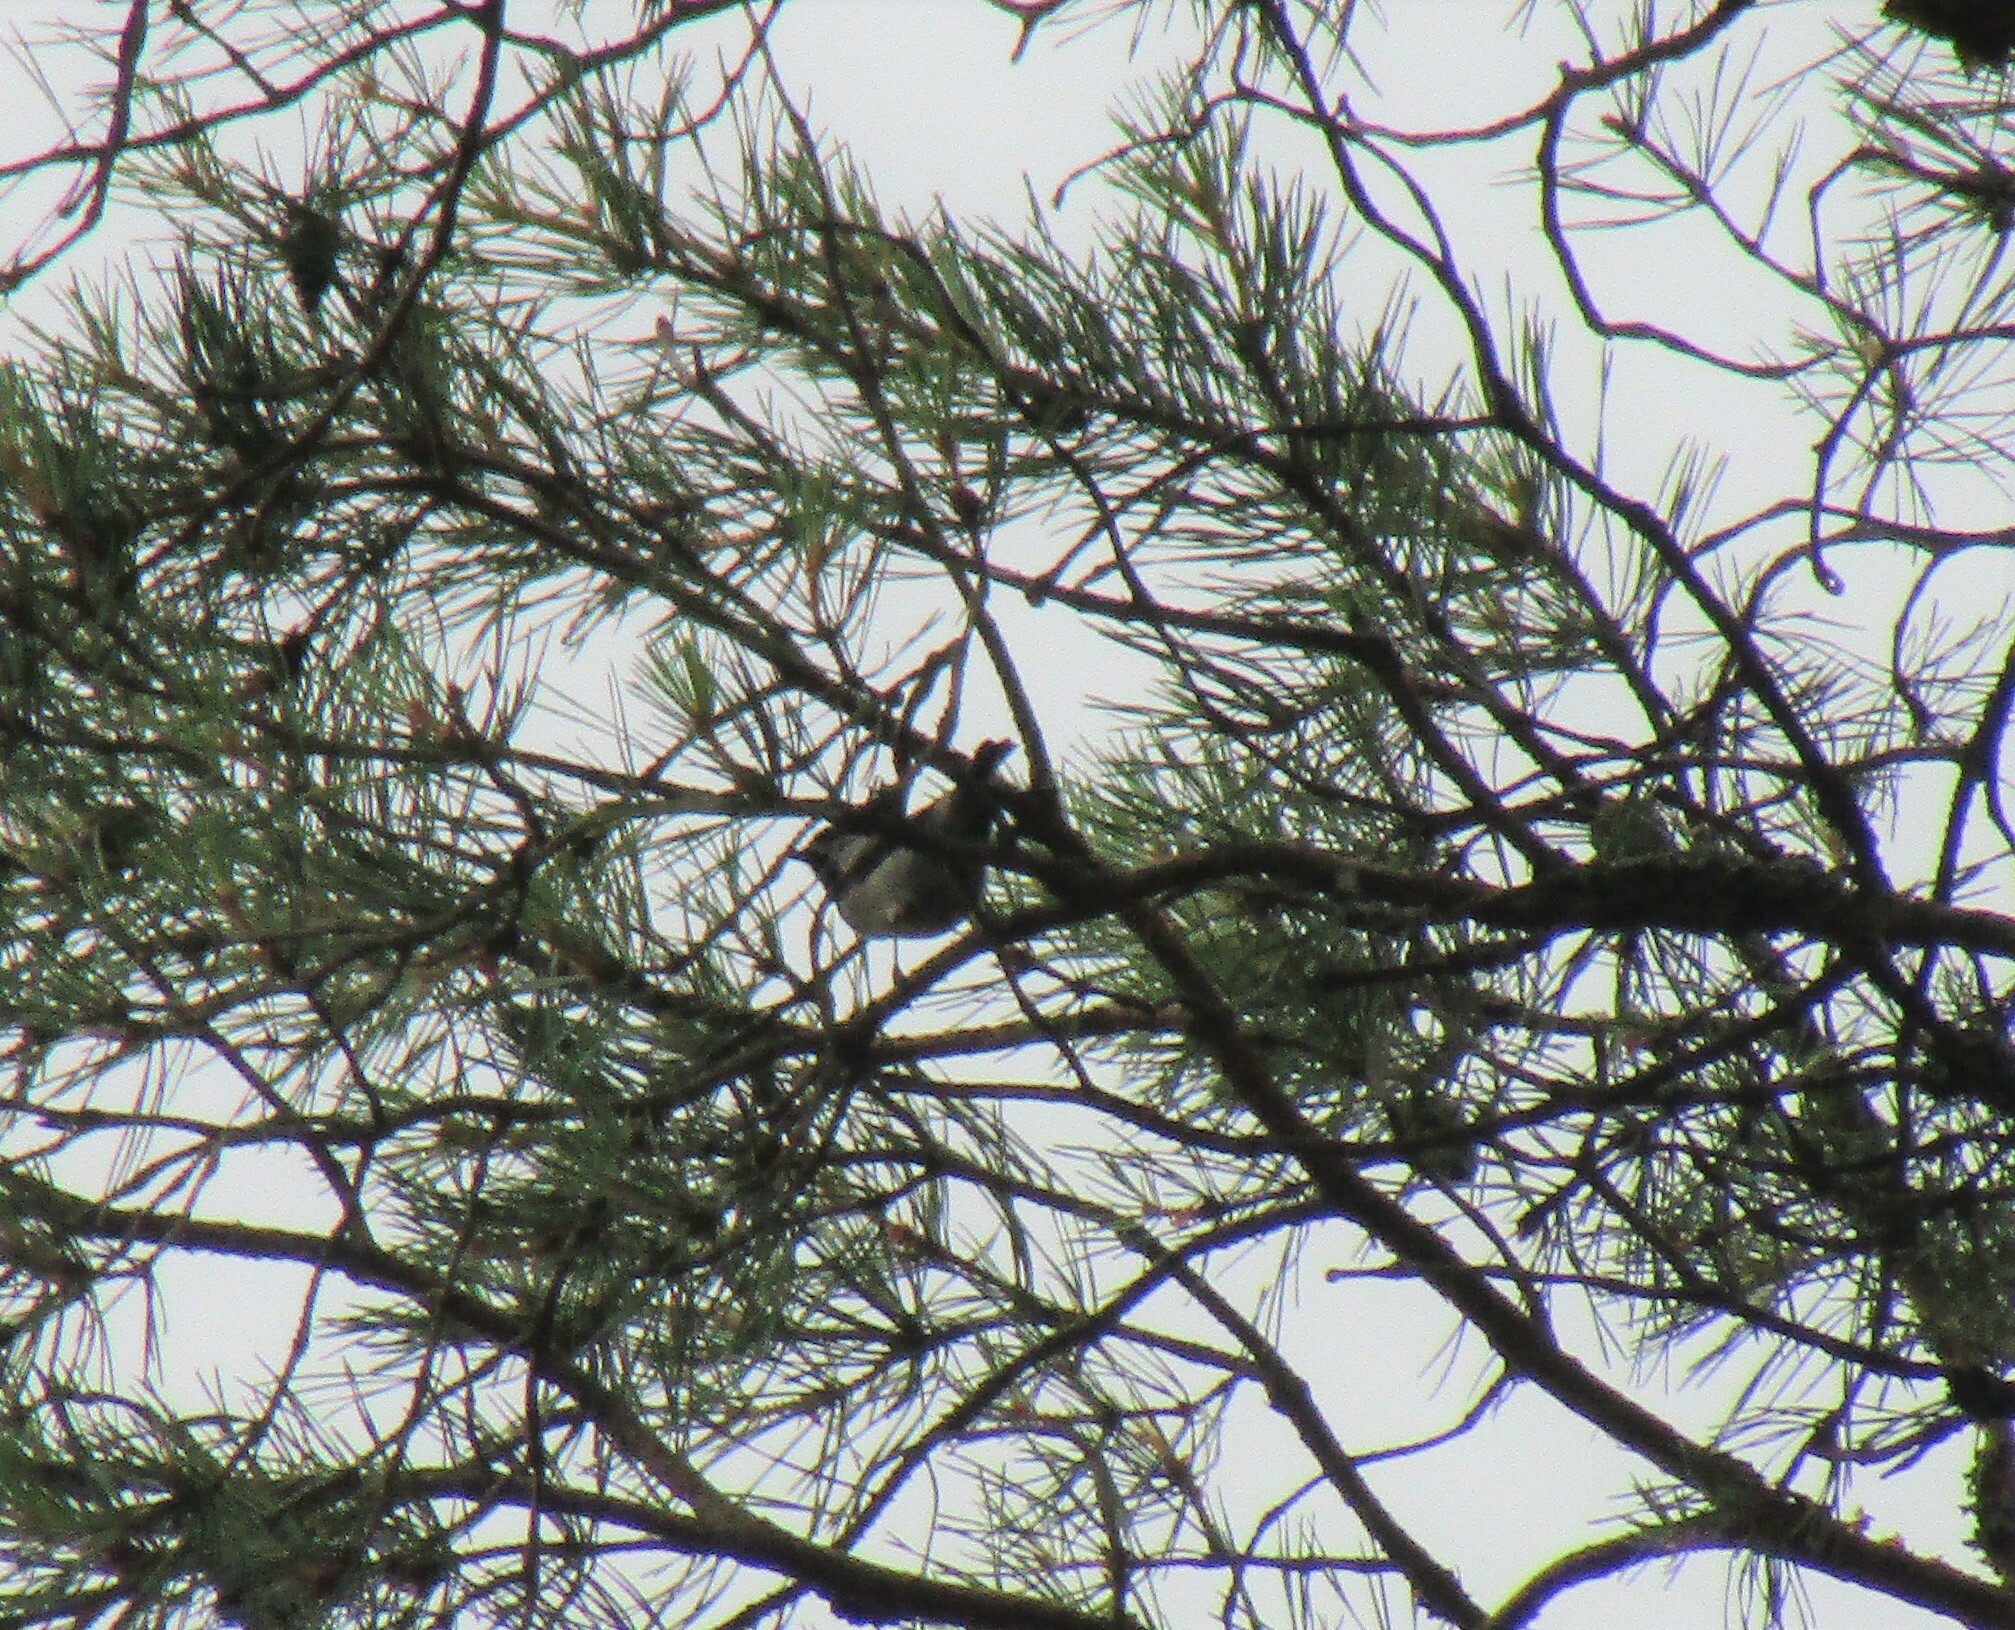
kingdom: Animalia
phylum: Chordata
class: Aves
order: Passeriformes
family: Paridae
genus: Periparus
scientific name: Periparus ater
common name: Coal tit
